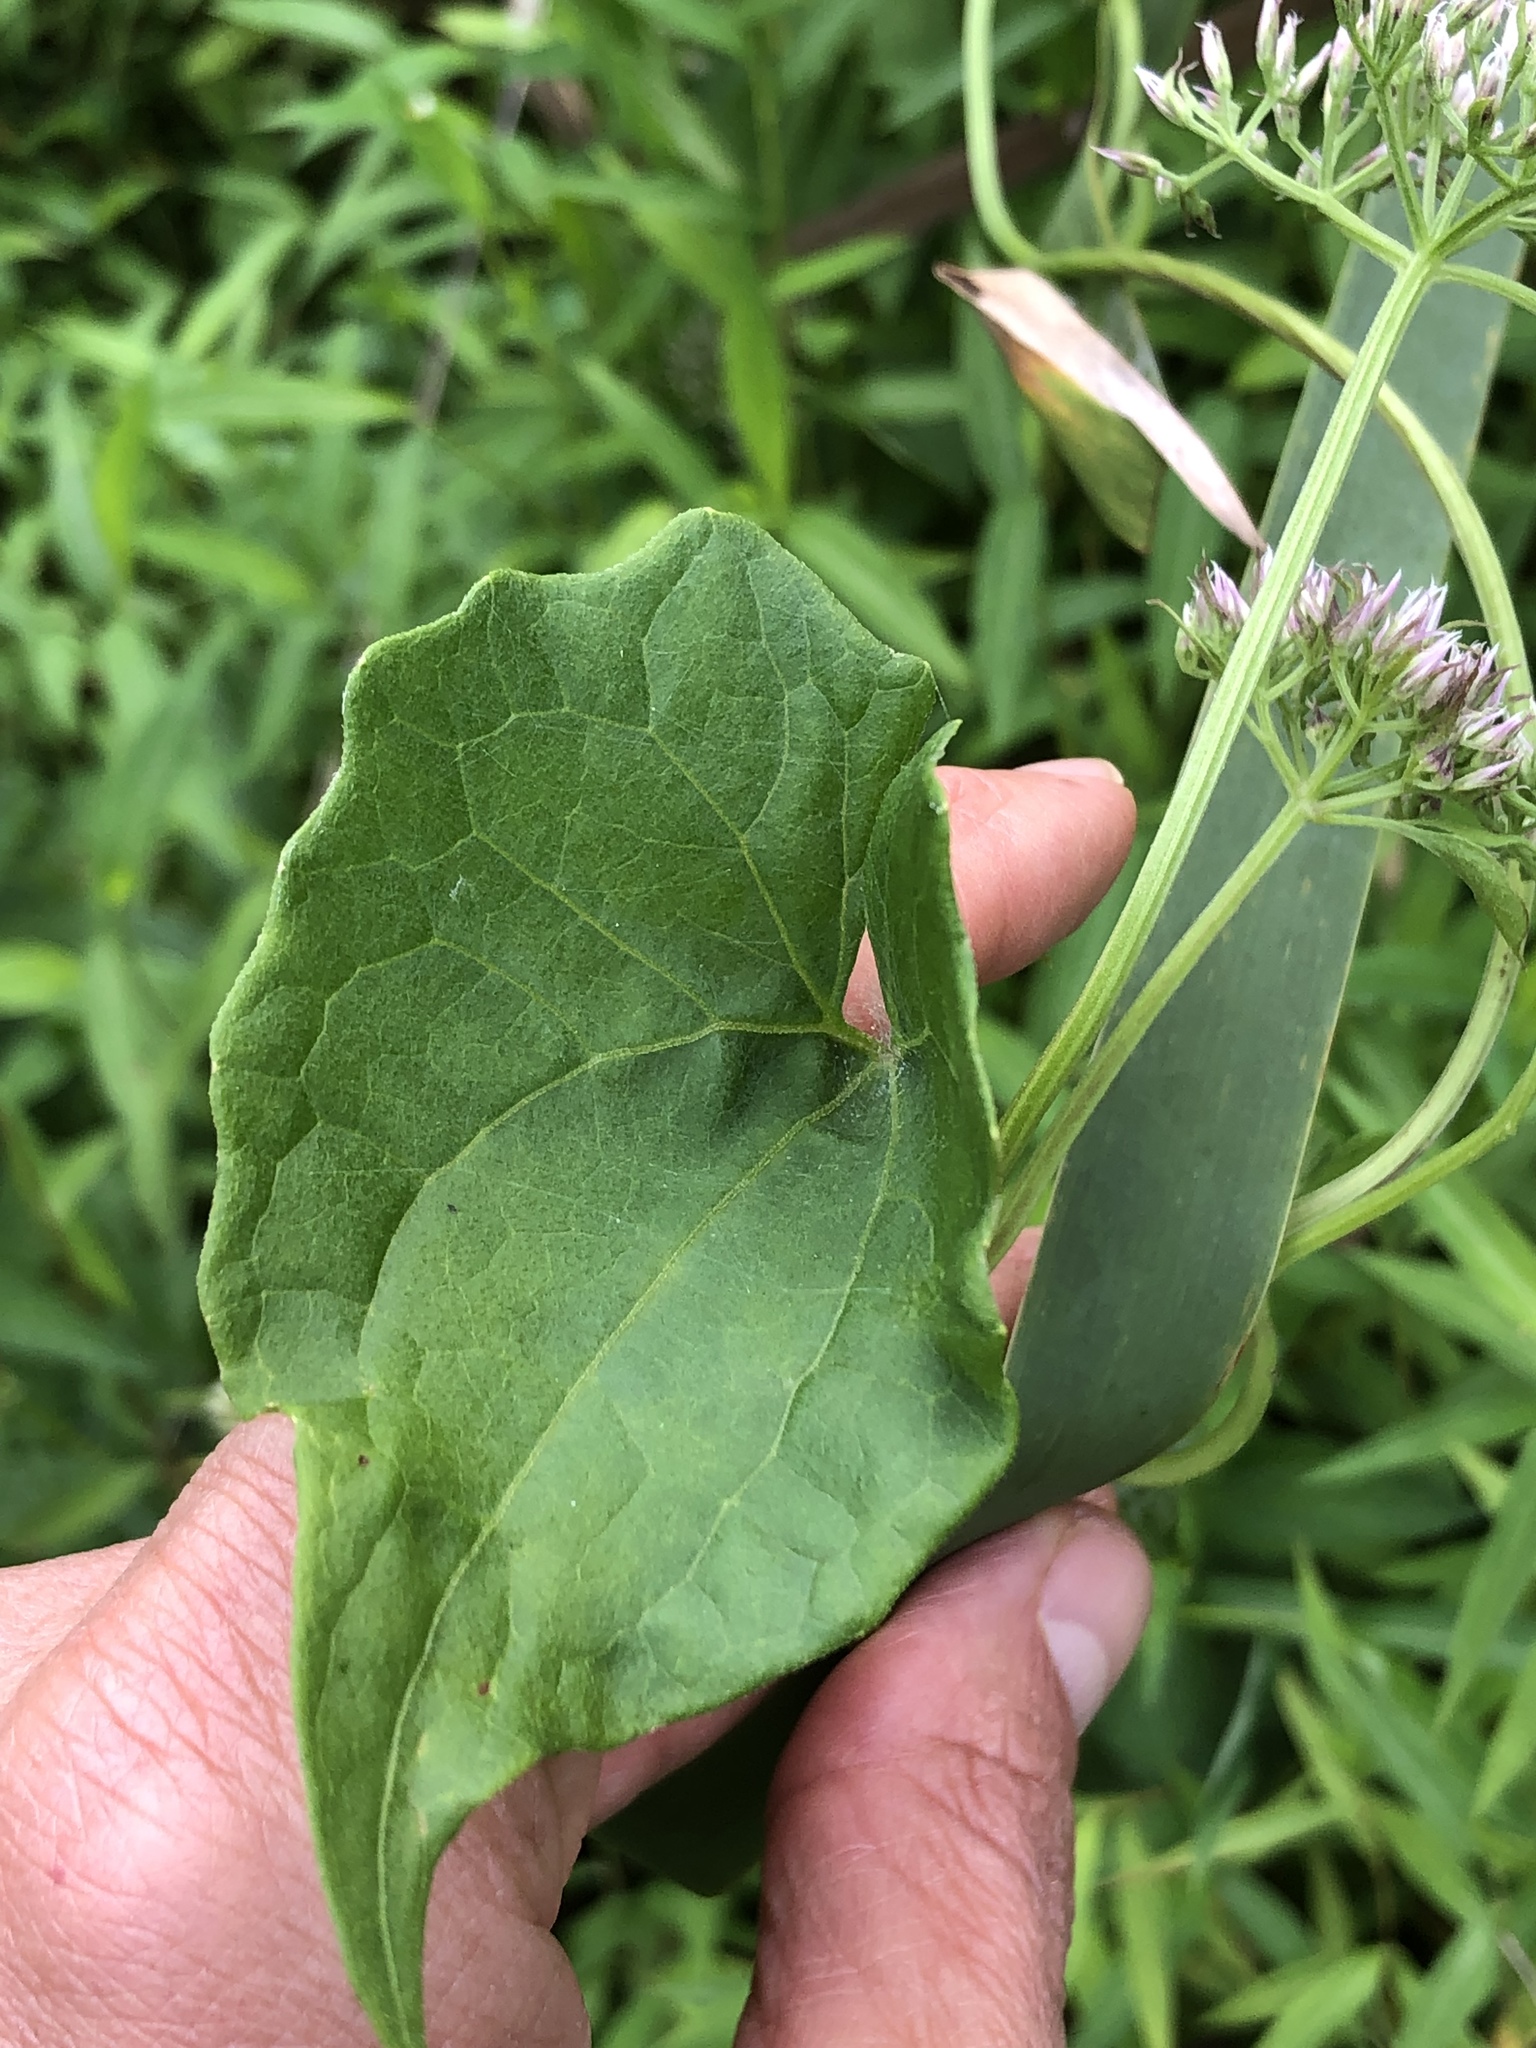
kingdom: Plantae
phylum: Tracheophyta
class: Magnoliopsida
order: Asterales
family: Asteraceae
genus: Mikania
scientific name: Mikania scandens
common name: Climbing hempvine
